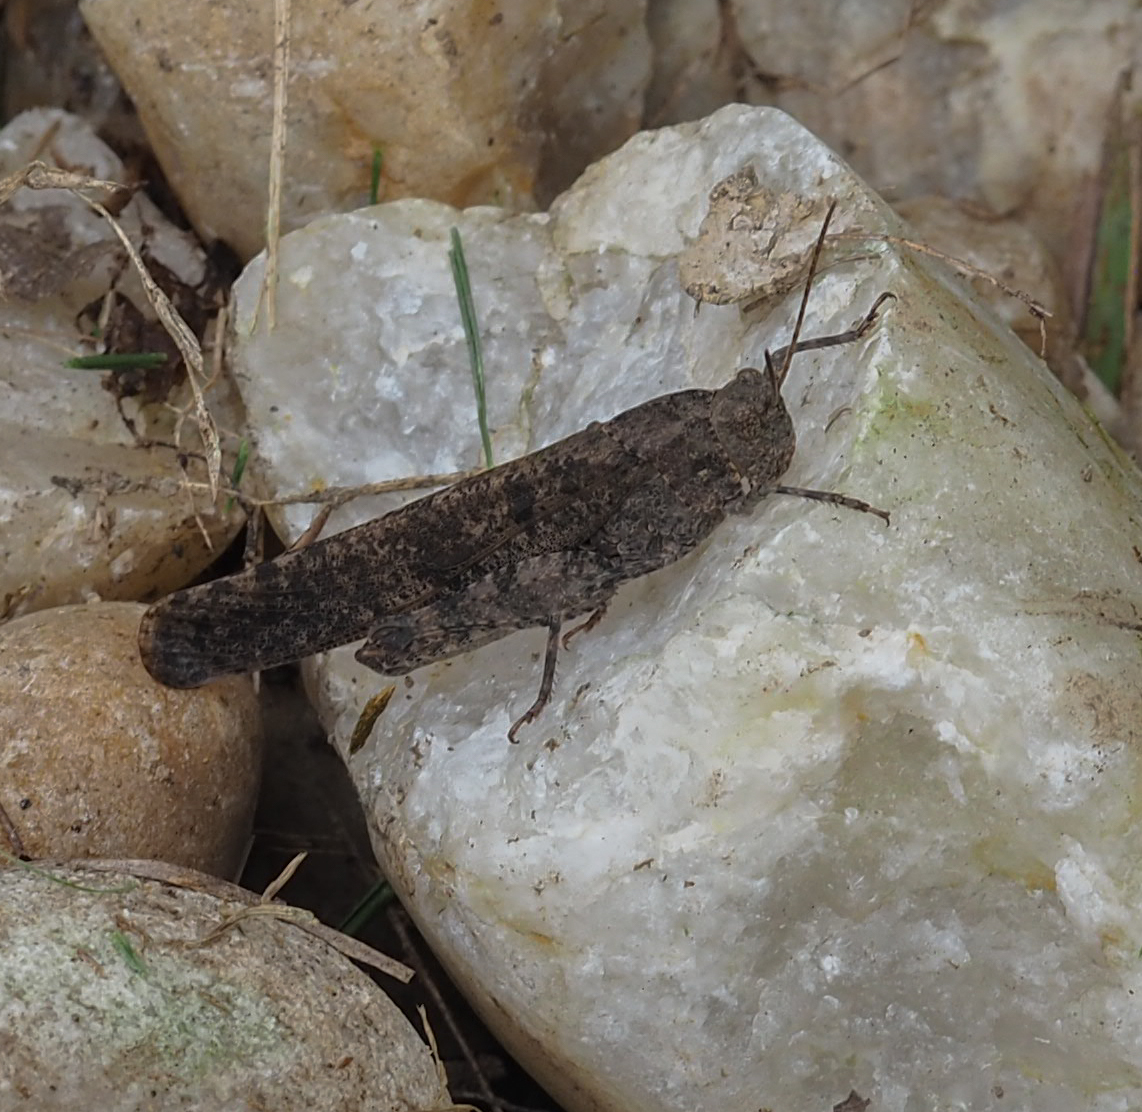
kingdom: Animalia
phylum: Arthropoda
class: Insecta
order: Orthoptera
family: Acrididae
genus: Dissosteira
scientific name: Dissosteira carolina
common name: Carolina grasshopper
